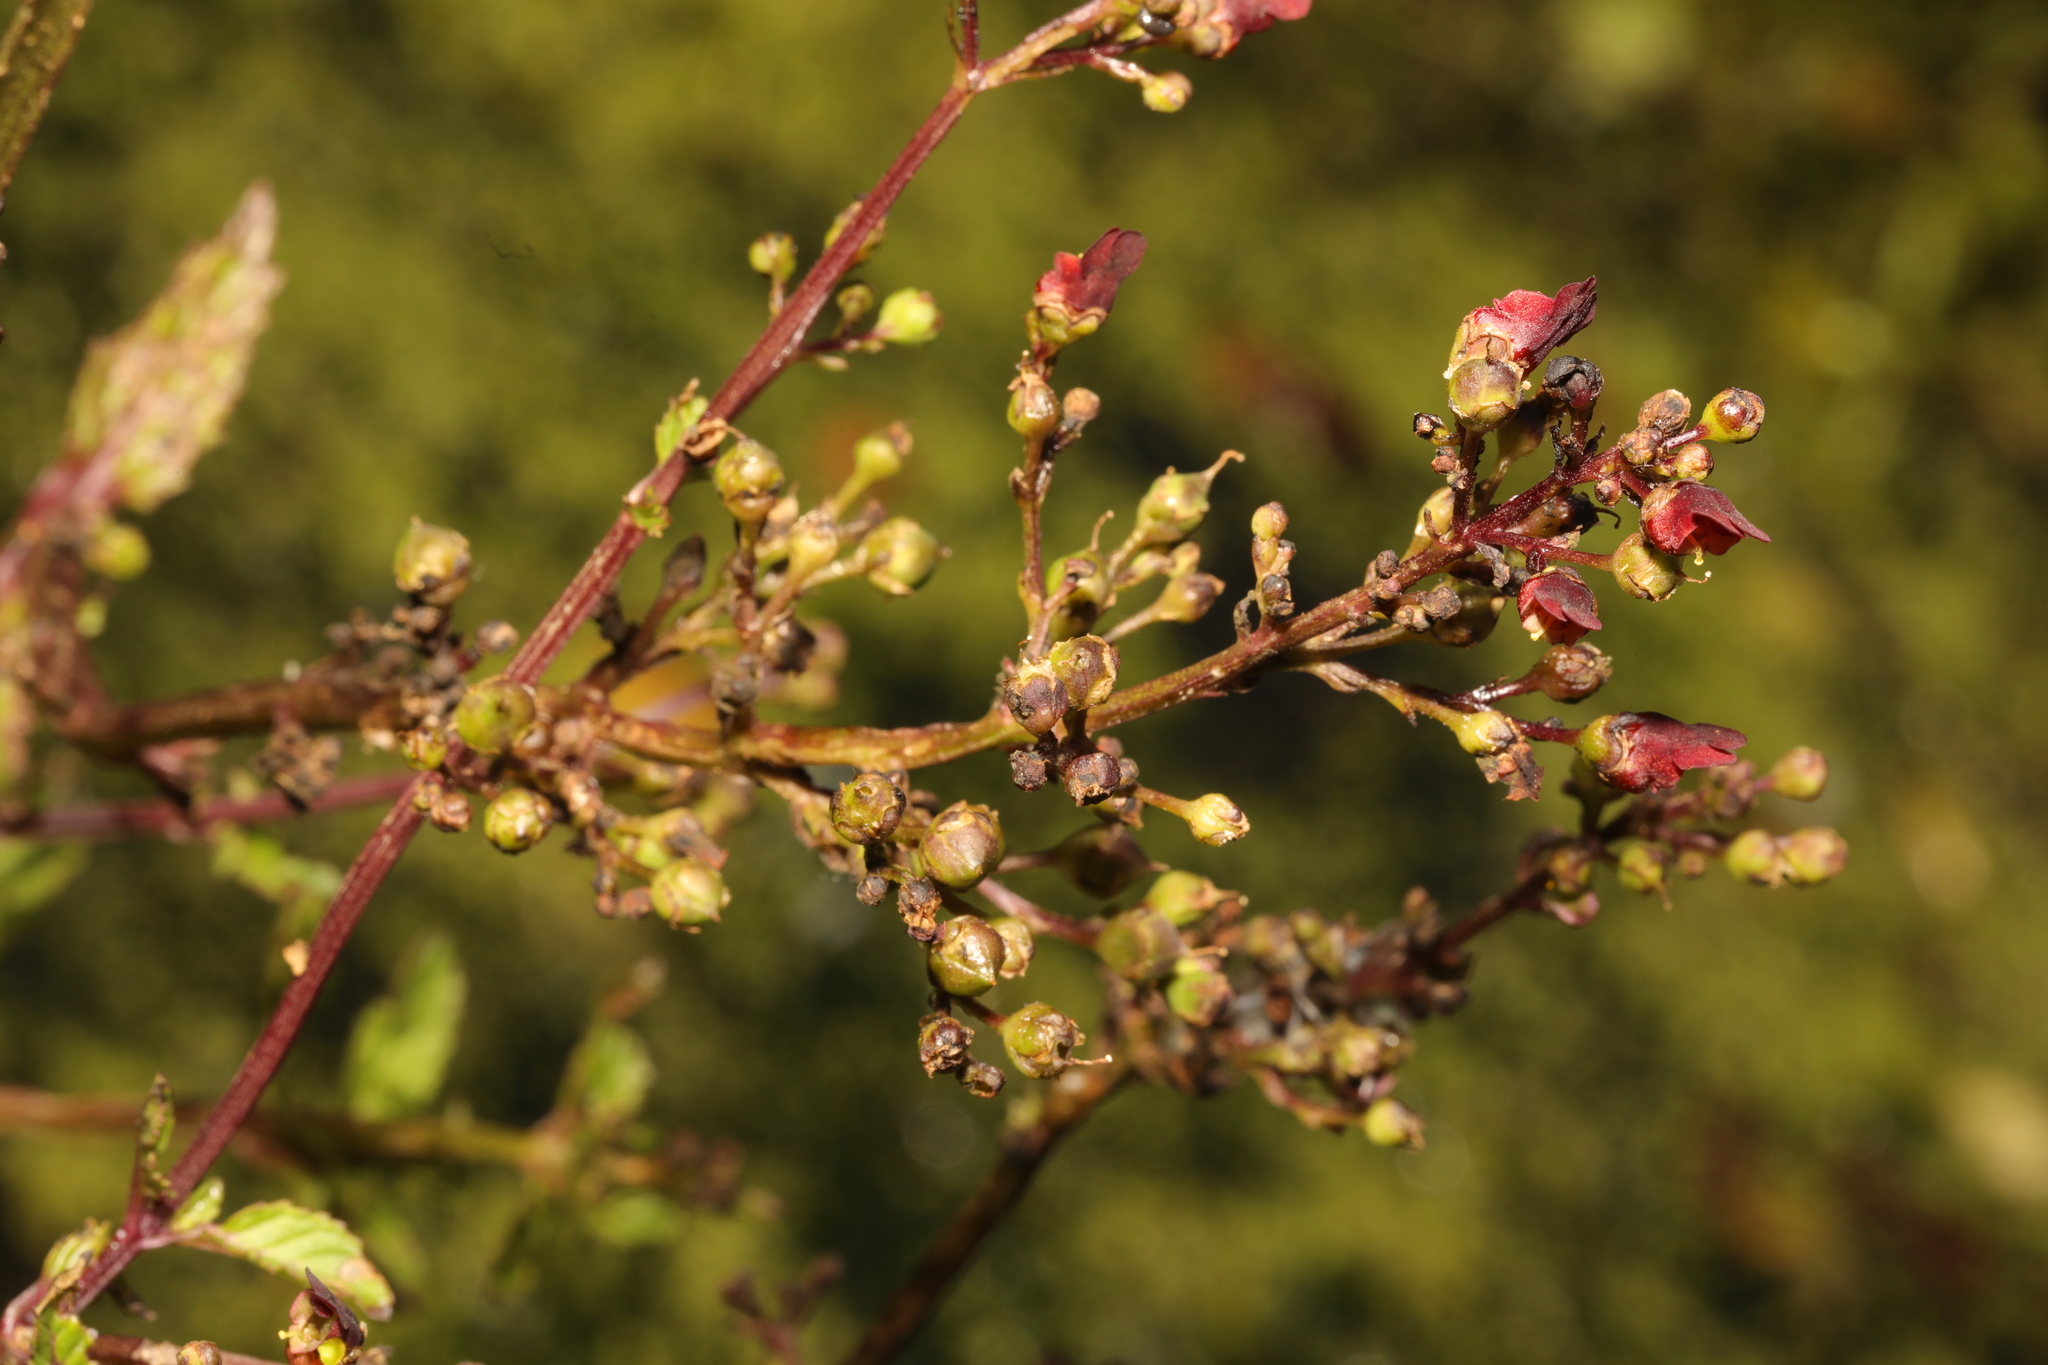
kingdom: Plantae
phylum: Tracheophyta
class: Magnoliopsida
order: Lamiales
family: Scrophulariaceae
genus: Scrophularia
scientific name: Scrophularia auriculata
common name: Water betony
